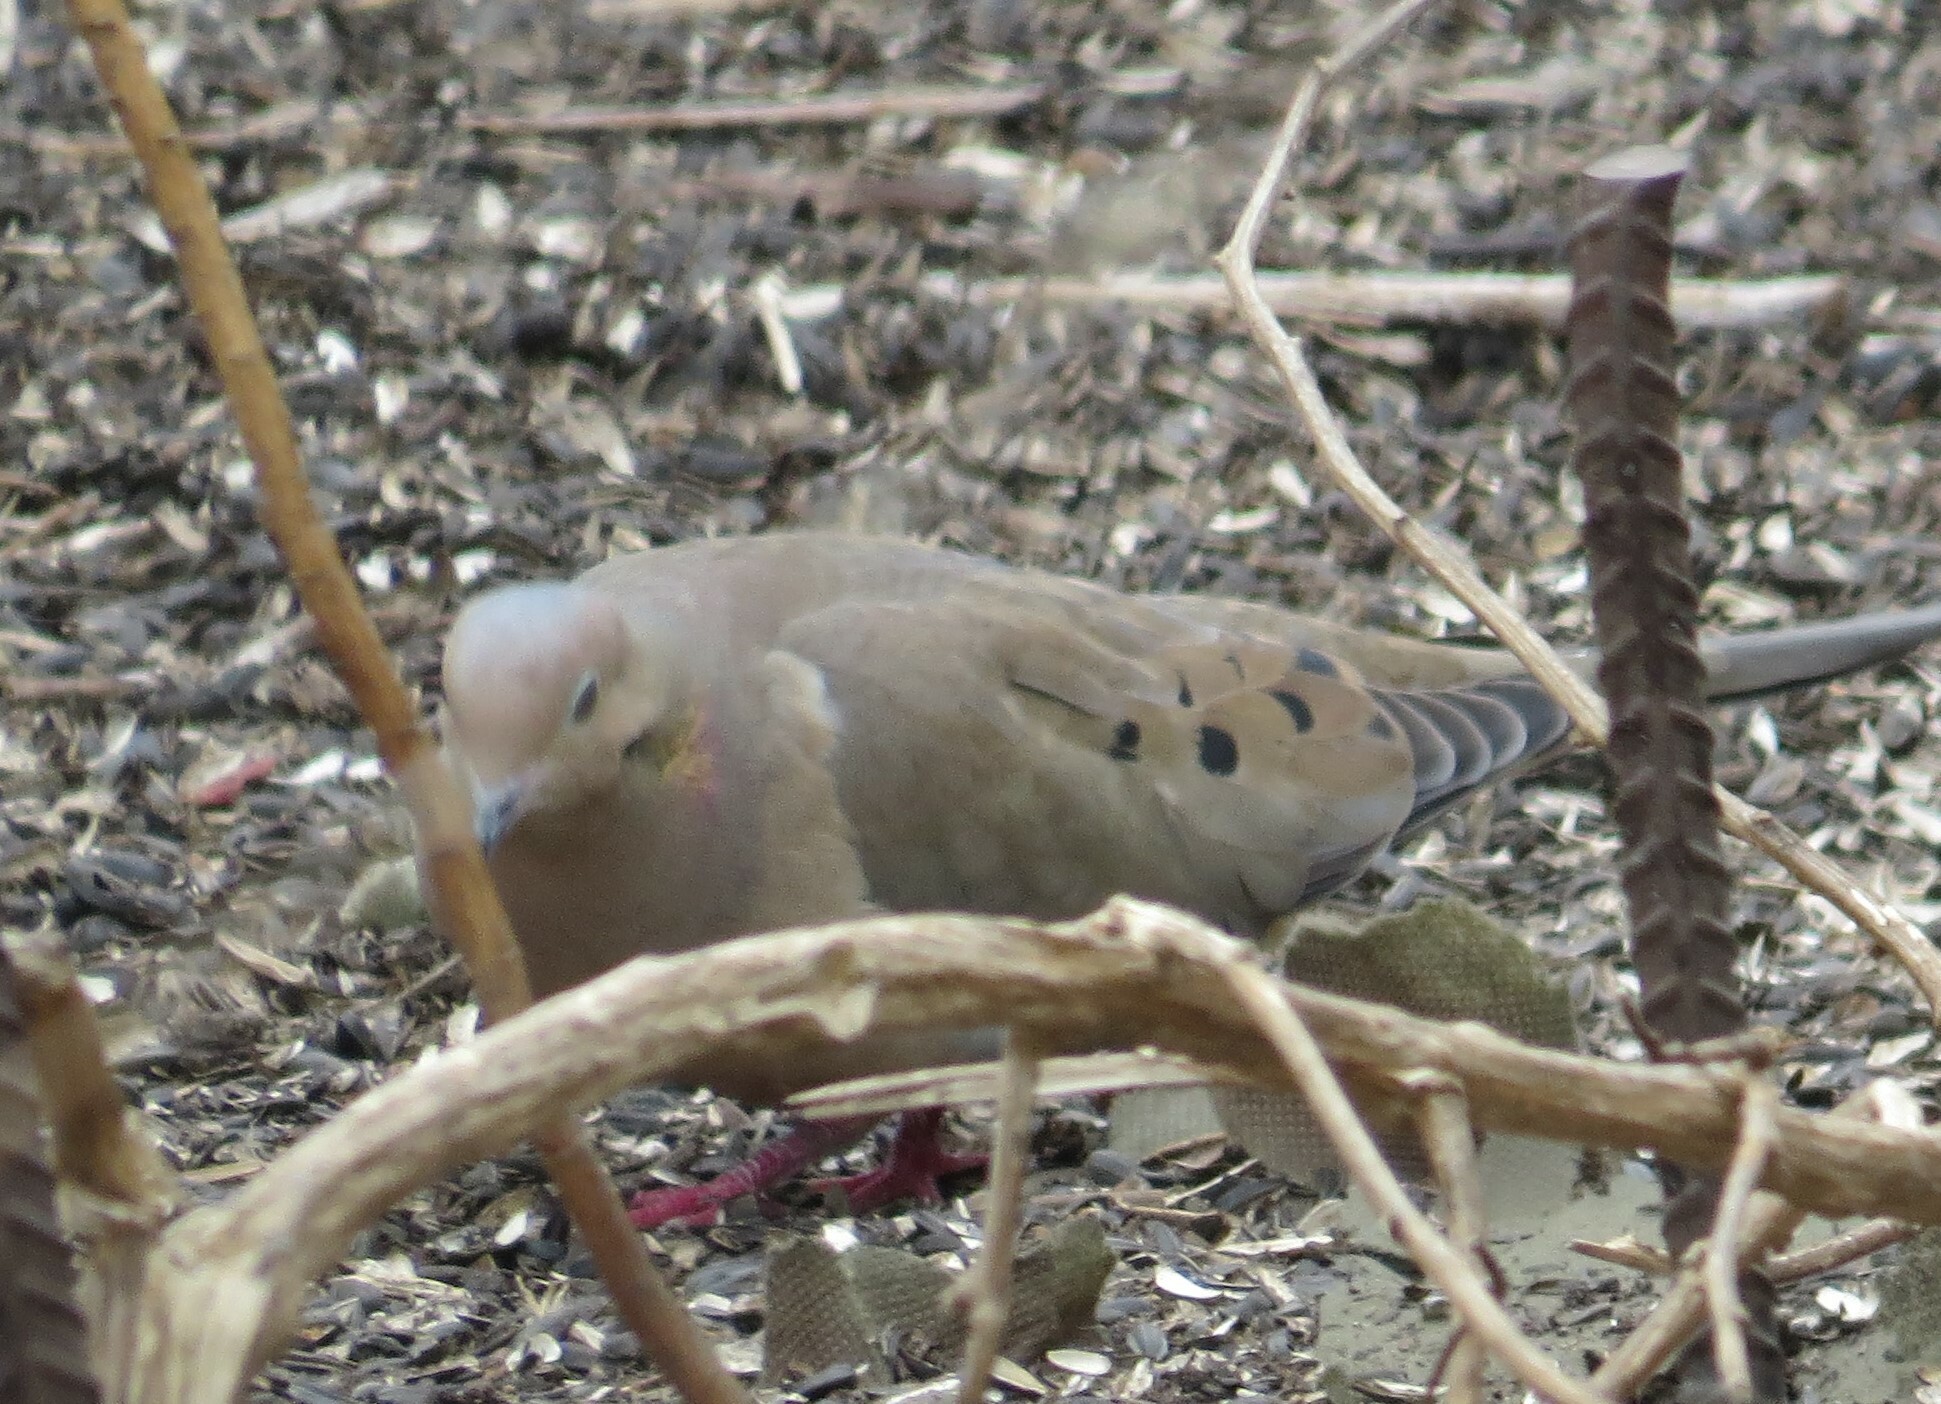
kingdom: Animalia
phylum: Chordata
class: Aves
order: Columbiformes
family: Columbidae
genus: Zenaida
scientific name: Zenaida macroura
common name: Mourning dove
